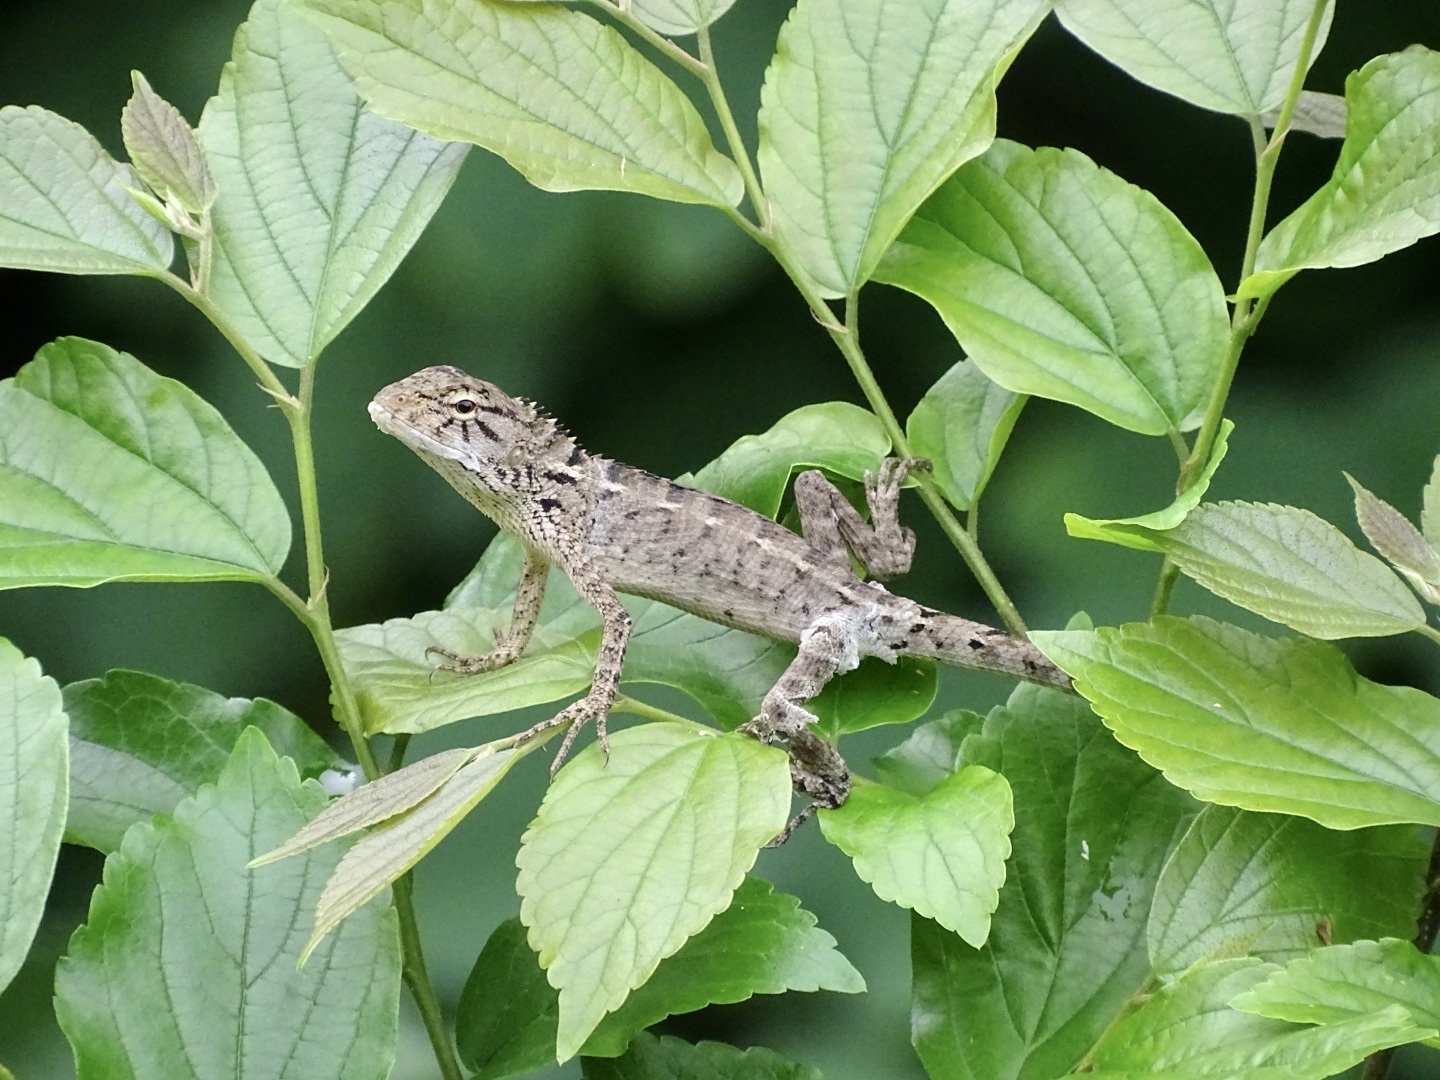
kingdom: Animalia
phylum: Chordata
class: Squamata
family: Agamidae
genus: Calotes
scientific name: Calotes versicolor
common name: Oriental garden lizard
